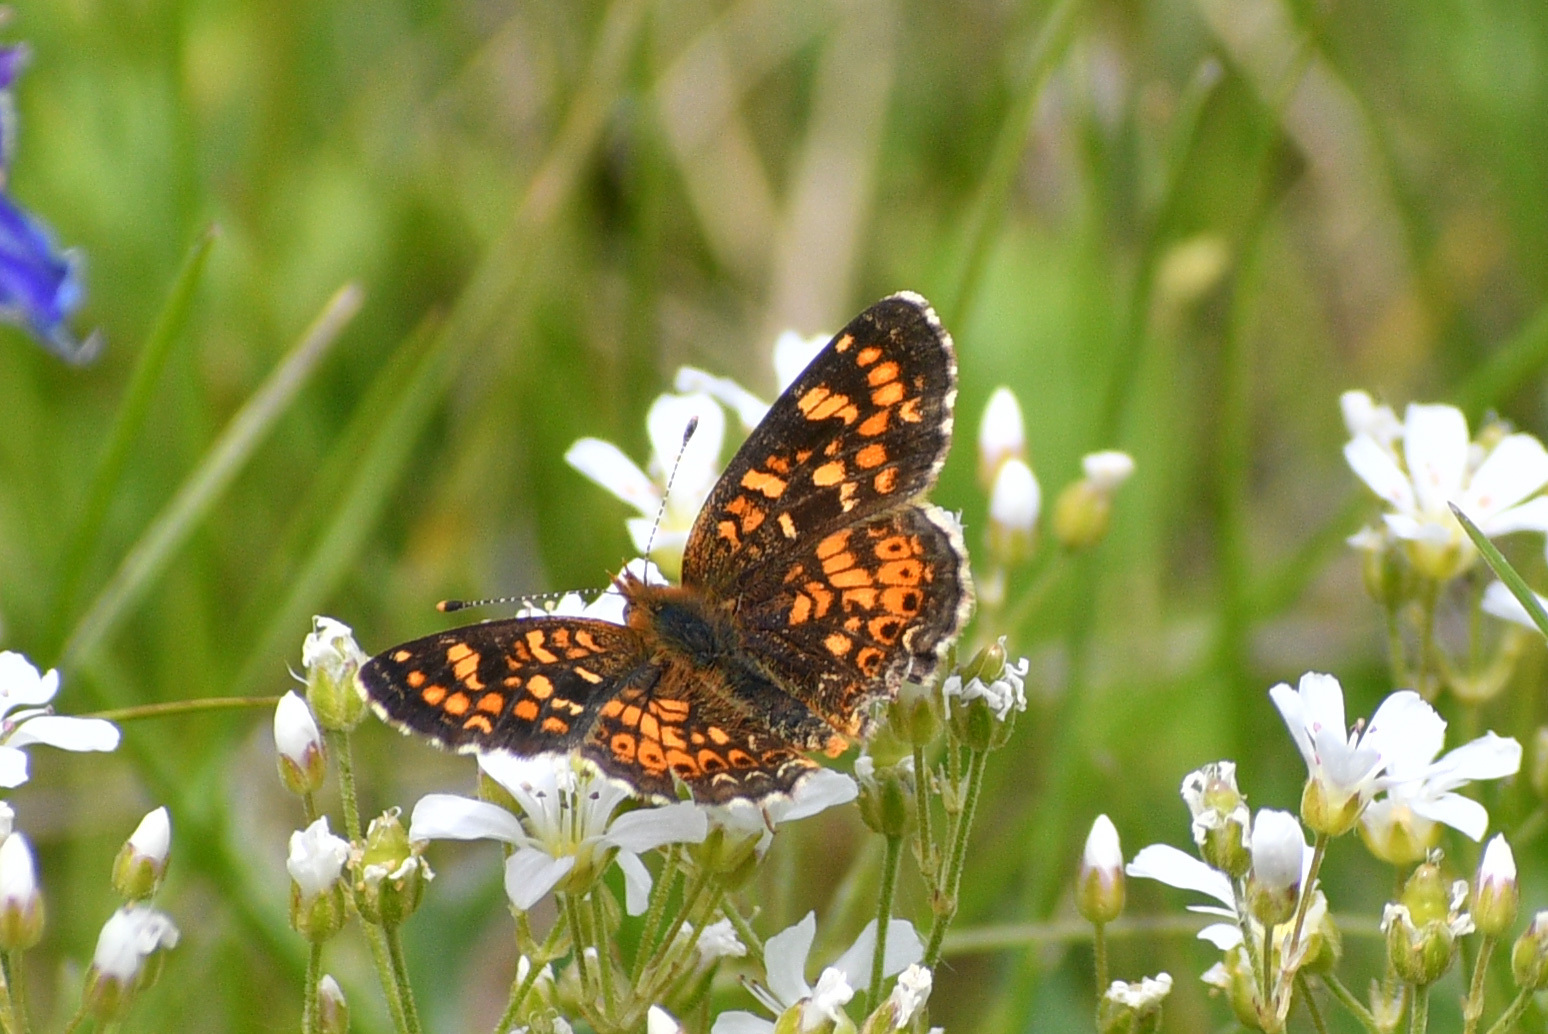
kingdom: Animalia
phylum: Arthropoda
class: Insecta
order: Lepidoptera
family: Nymphalidae
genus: Phyciodes
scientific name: Phyciodes tharos
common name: Pearl crescent
